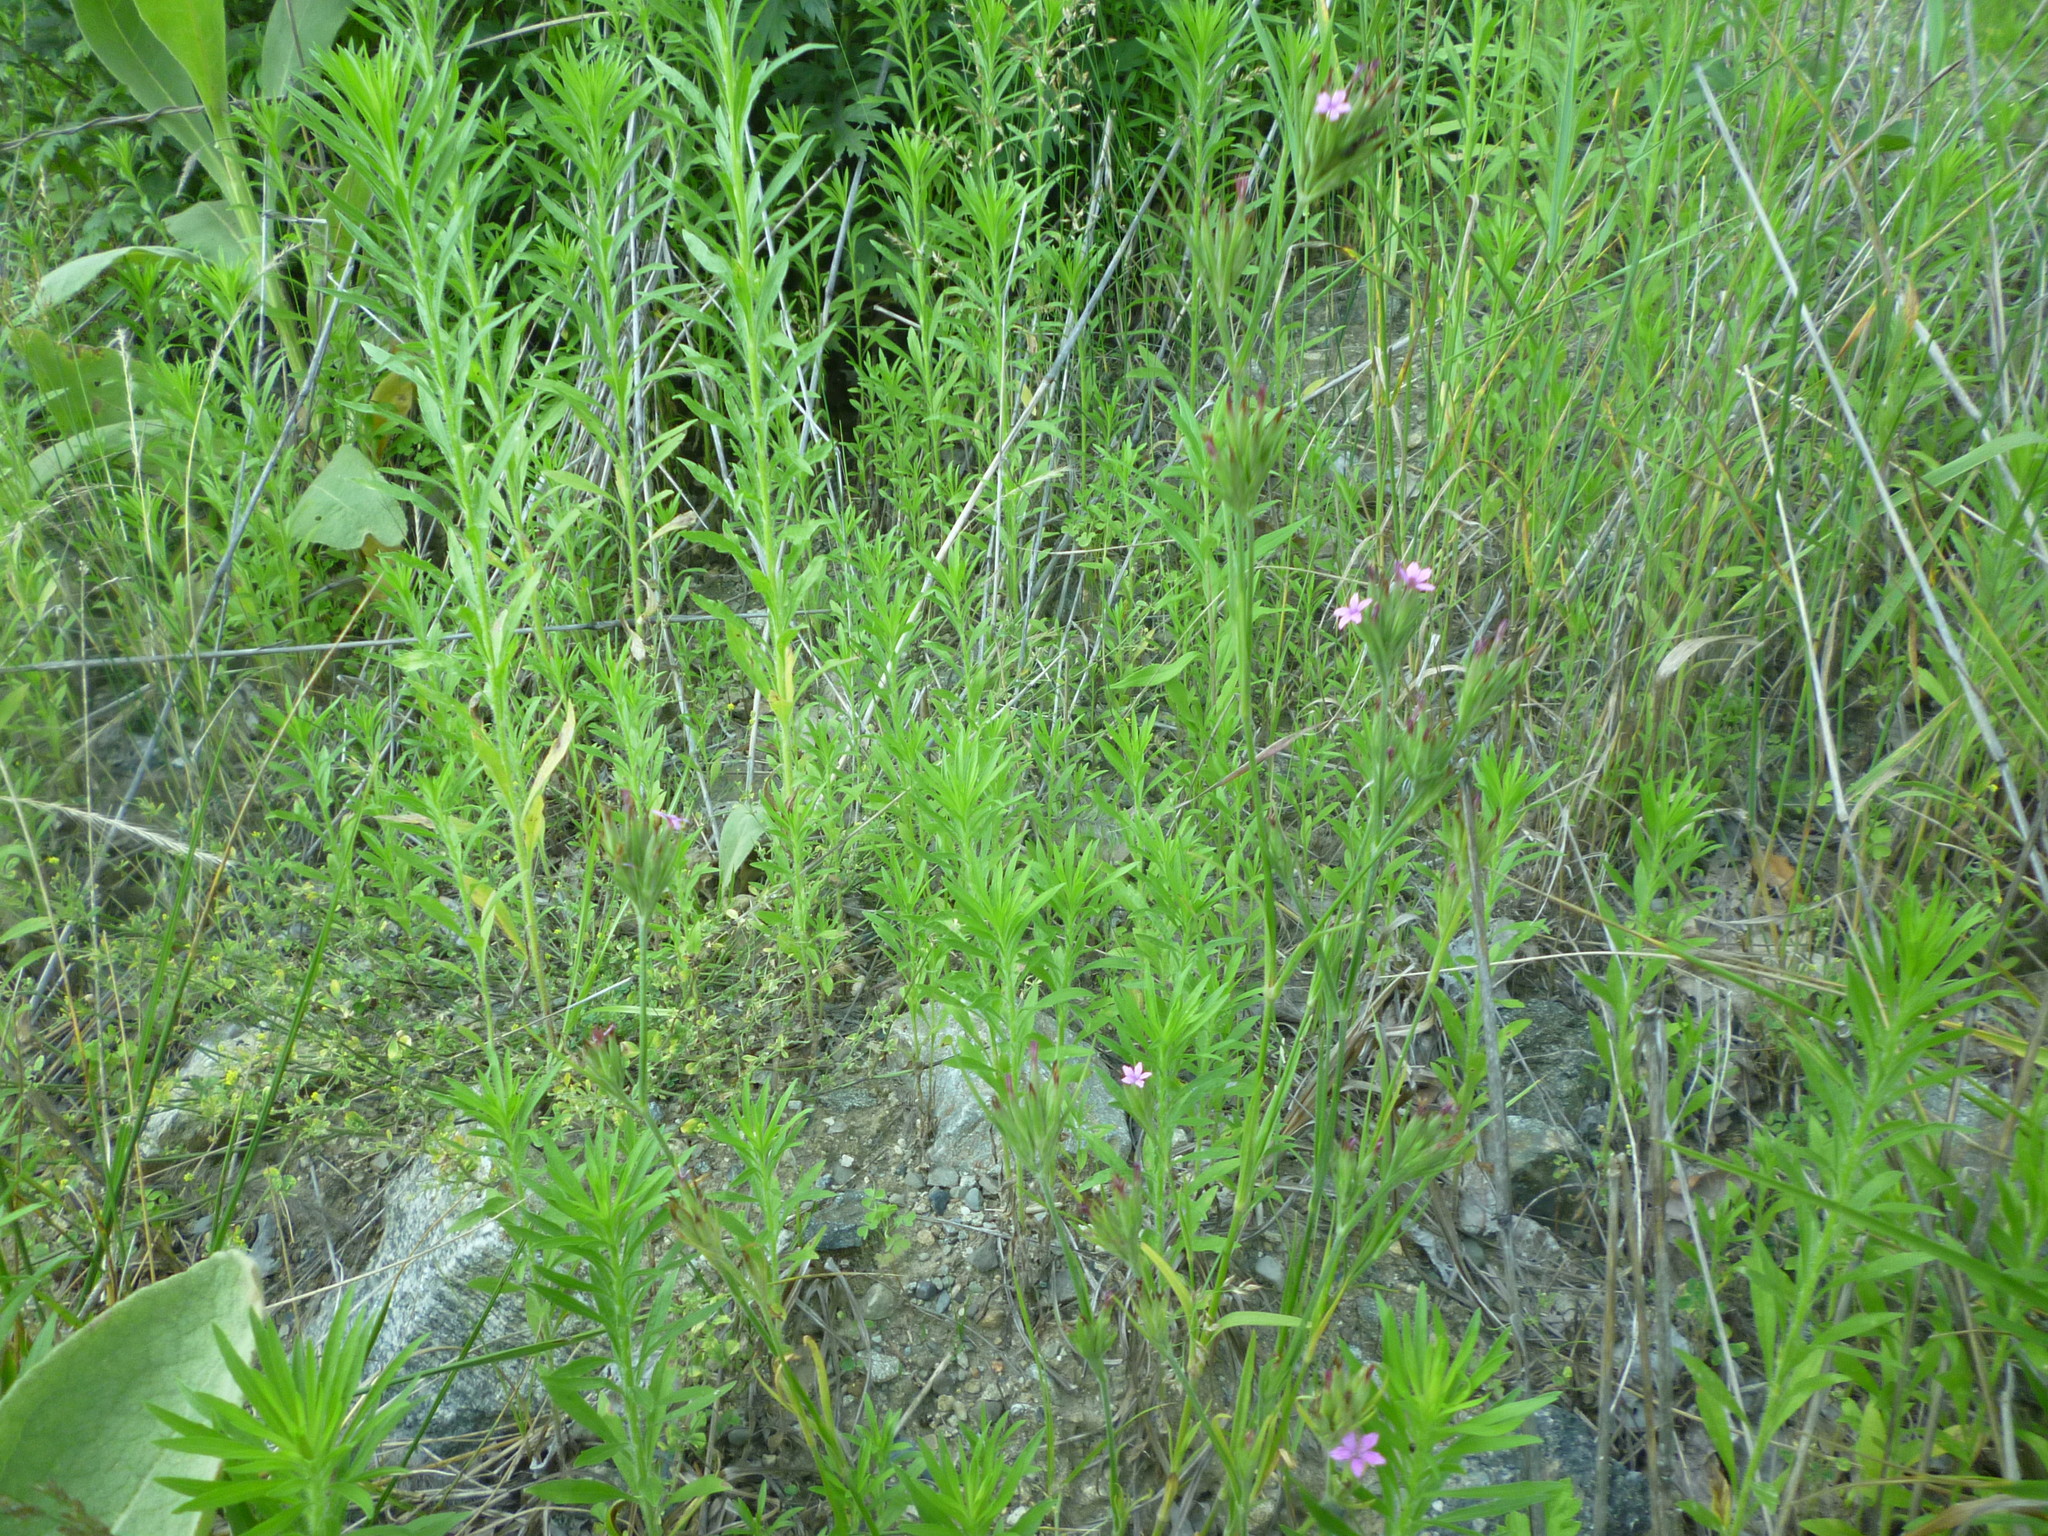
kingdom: Plantae
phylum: Tracheophyta
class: Magnoliopsida
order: Caryophyllales
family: Caryophyllaceae
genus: Dianthus
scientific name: Dianthus armeria
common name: Deptford pink
